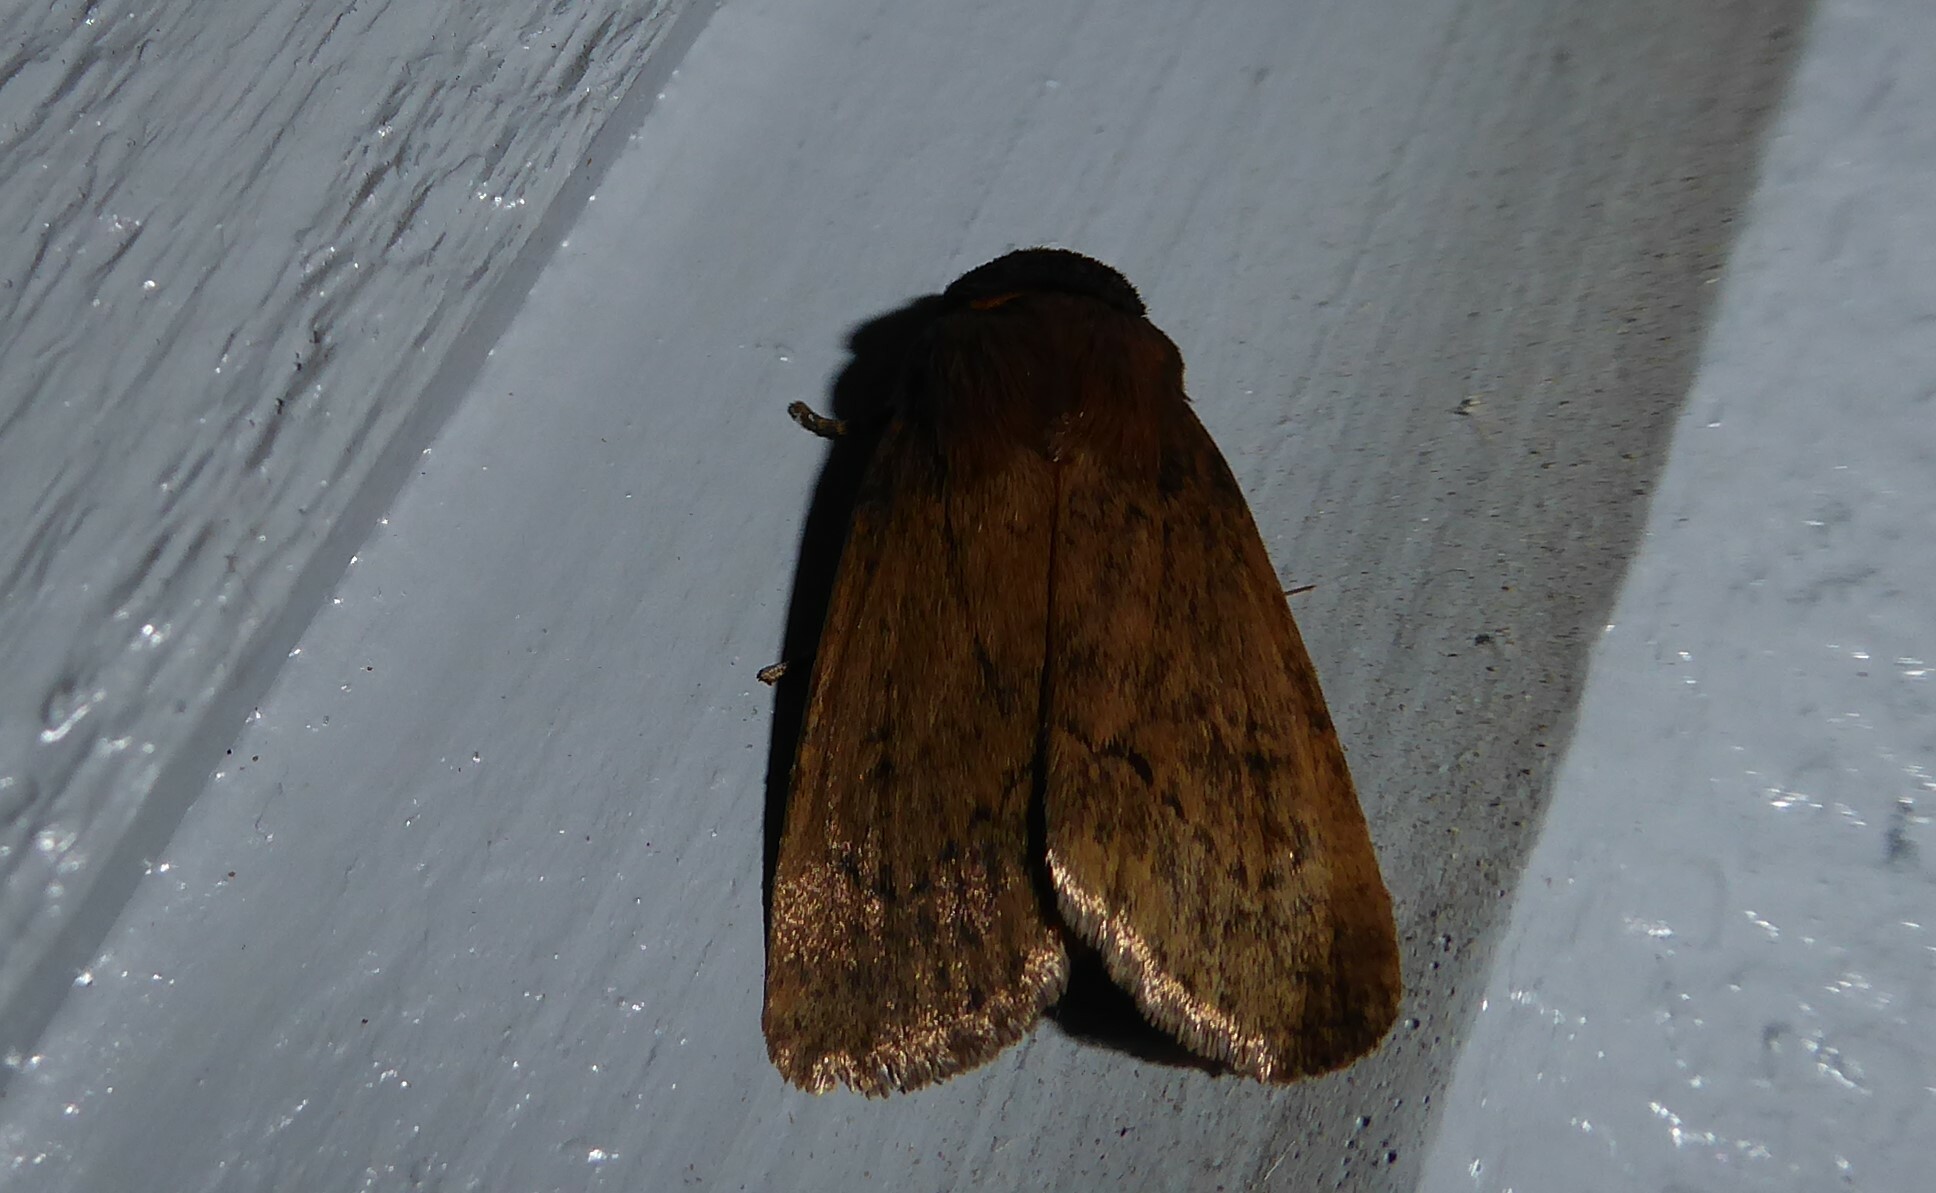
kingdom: Animalia
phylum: Arthropoda
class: Insecta
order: Lepidoptera
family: Noctuidae
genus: Bityla
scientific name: Bityla defigurata
